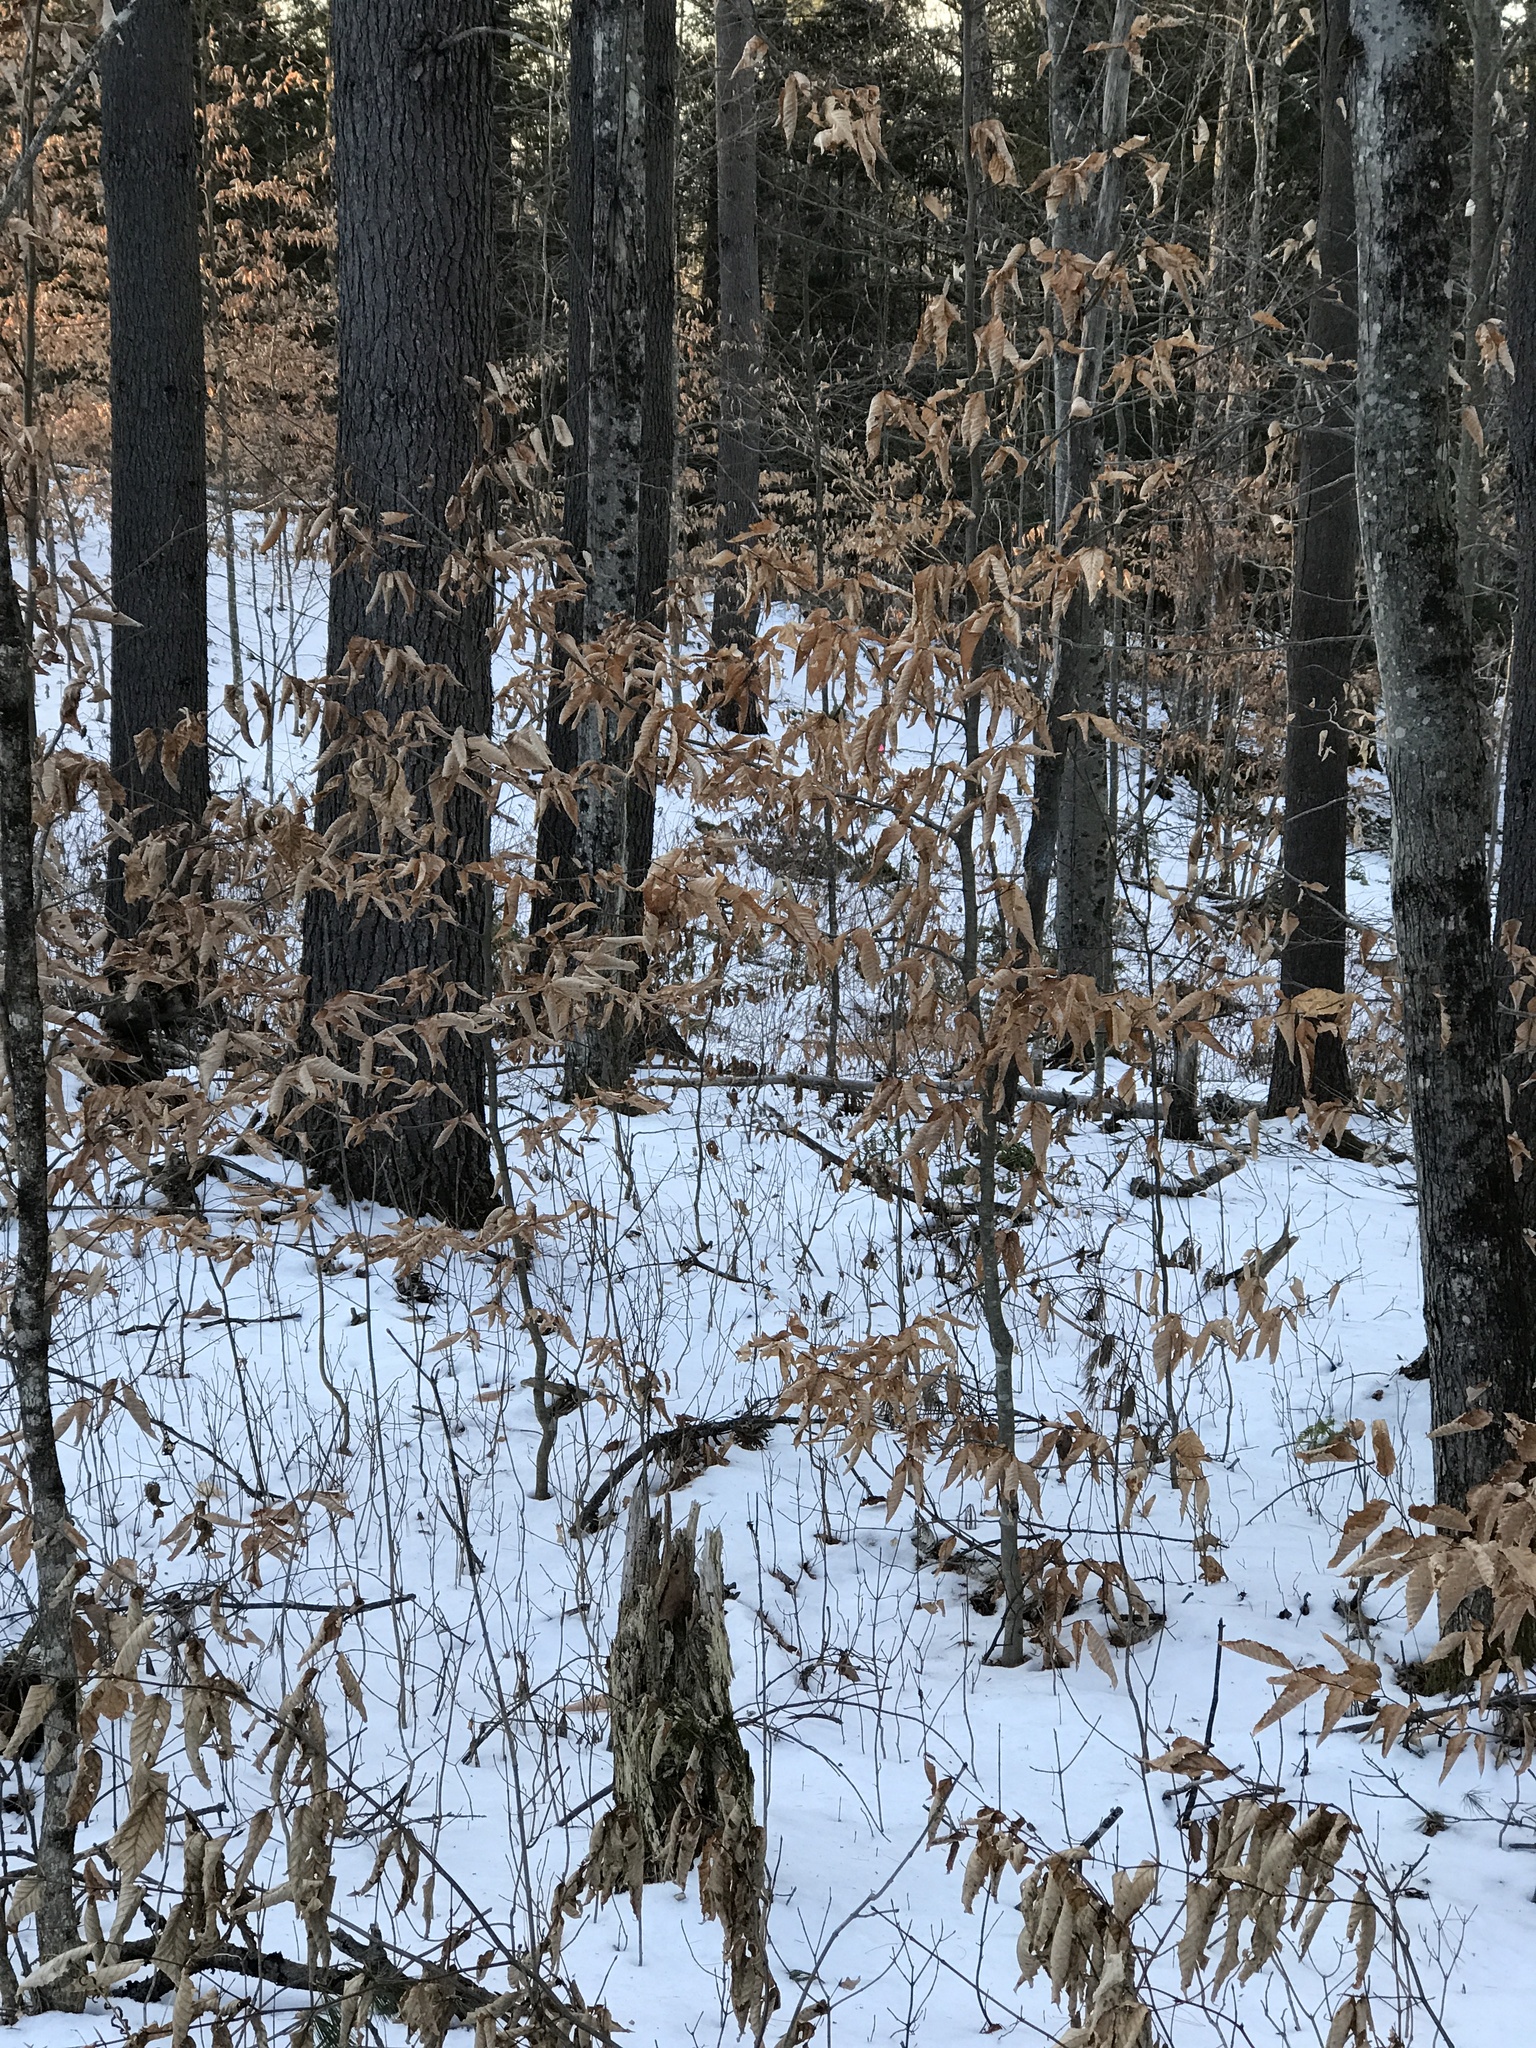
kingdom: Plantae
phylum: Tracheophyta
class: Magnoliopsida
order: Fagales
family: Fagaceae
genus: Fagus
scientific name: Fagus grandifolia
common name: American beech
